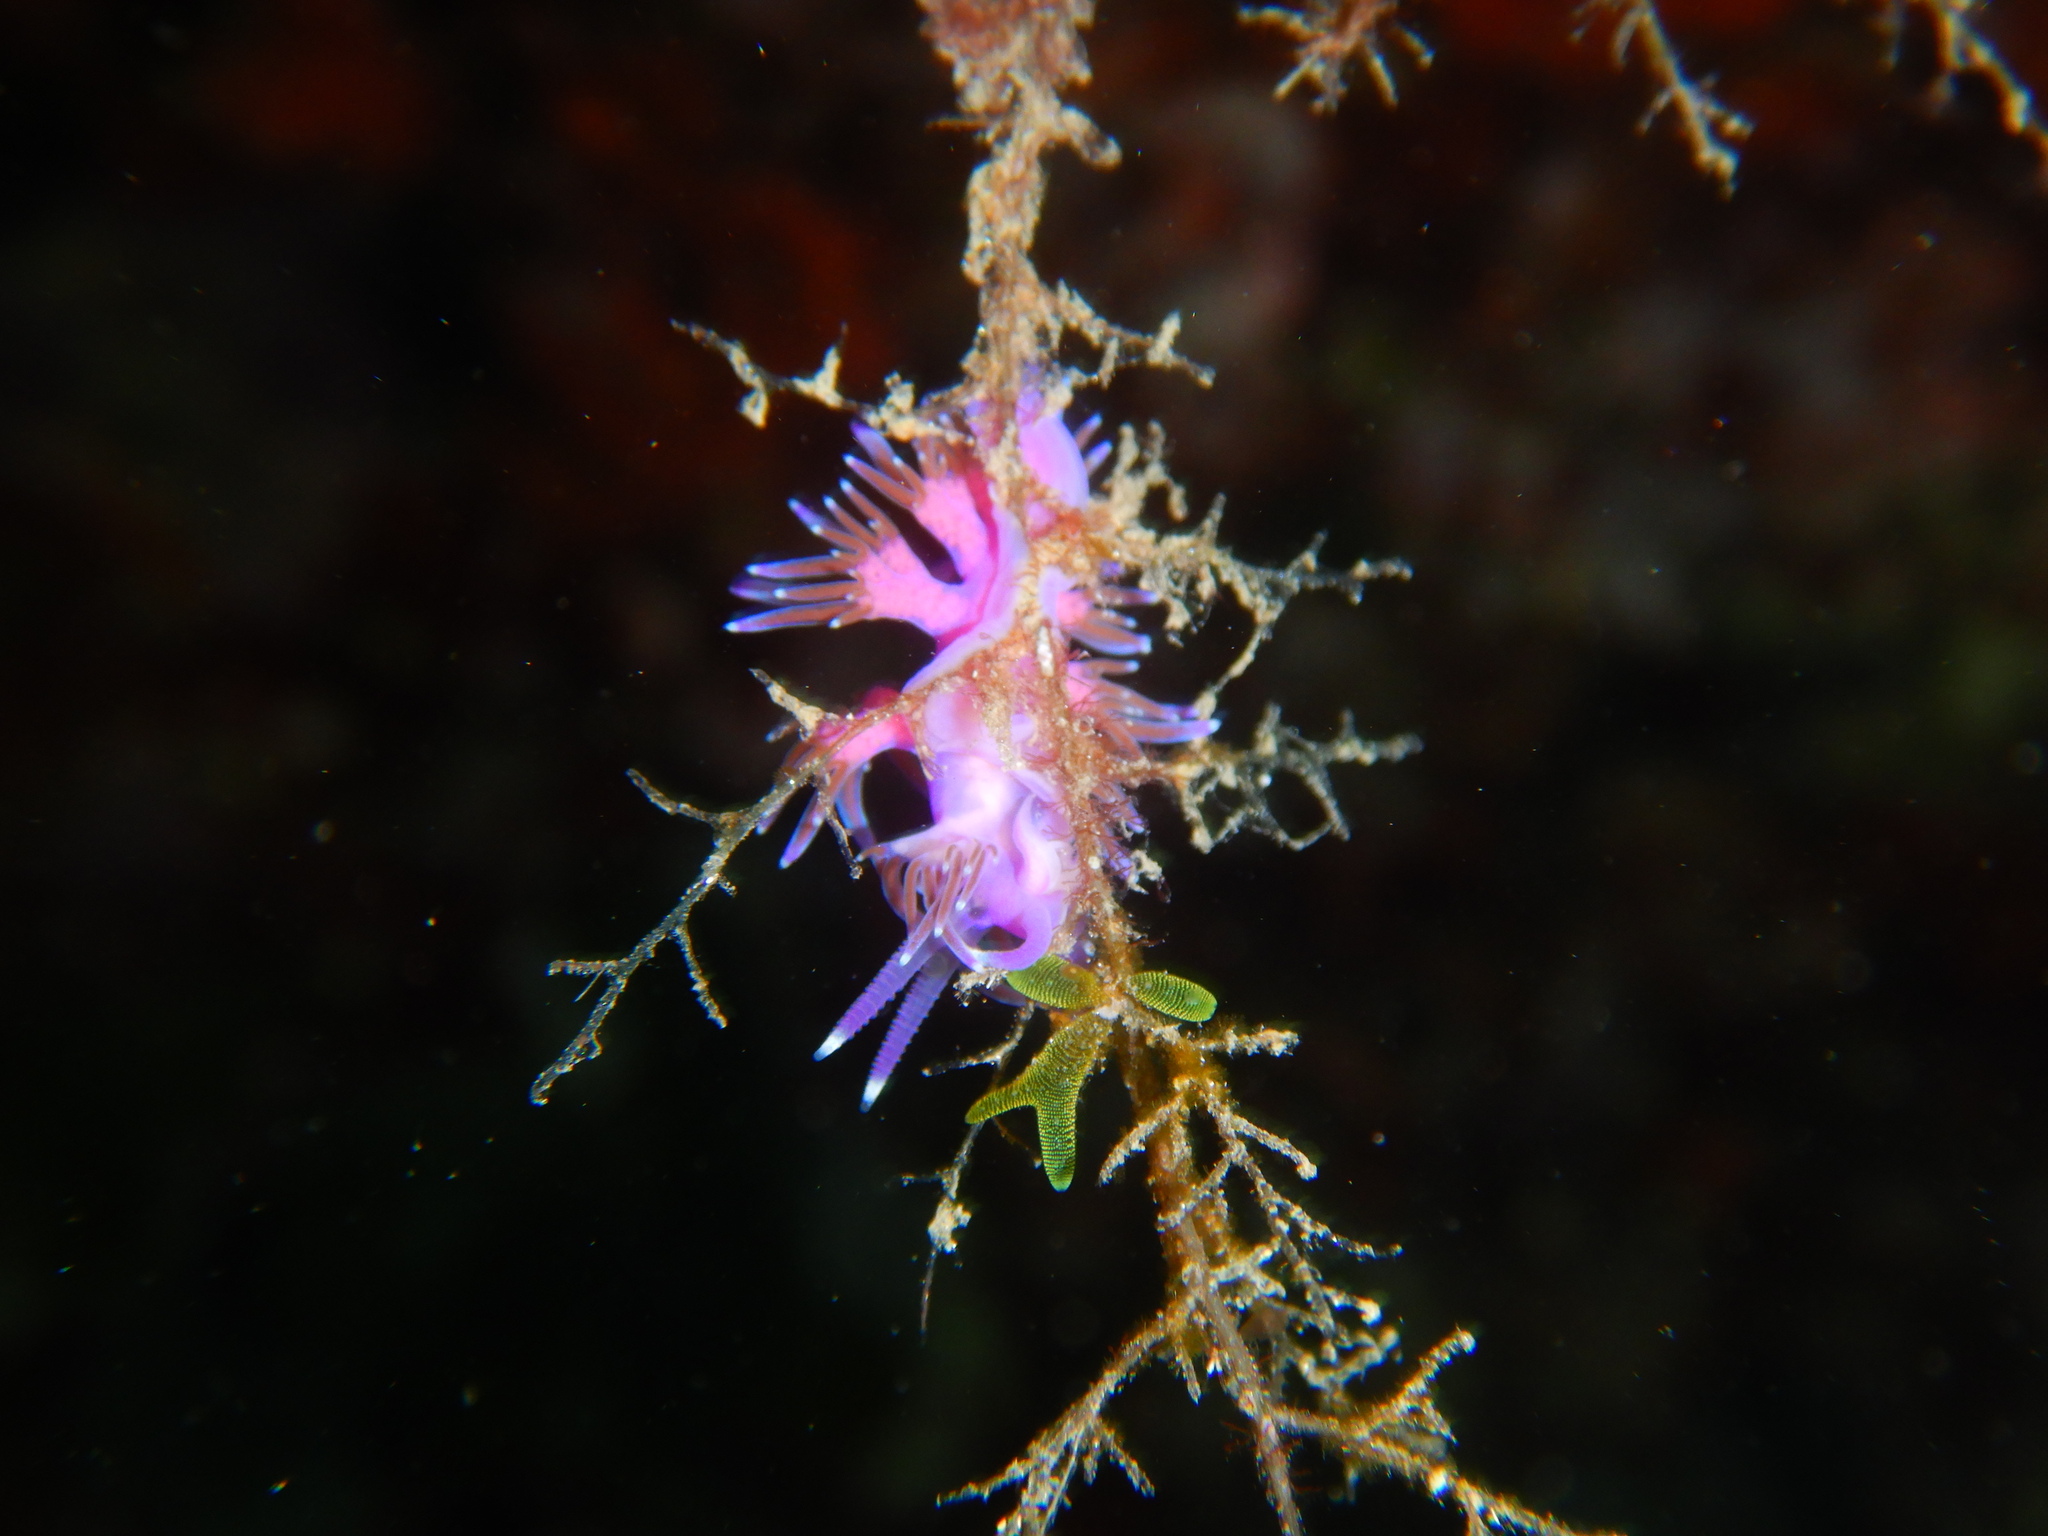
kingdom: Animalia
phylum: Mollusca
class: Gastropoda
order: Nudibranchia
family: Flabellinidae
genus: Flabellina
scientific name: Flabellina affinis
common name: Mediterranean violet aeolid
